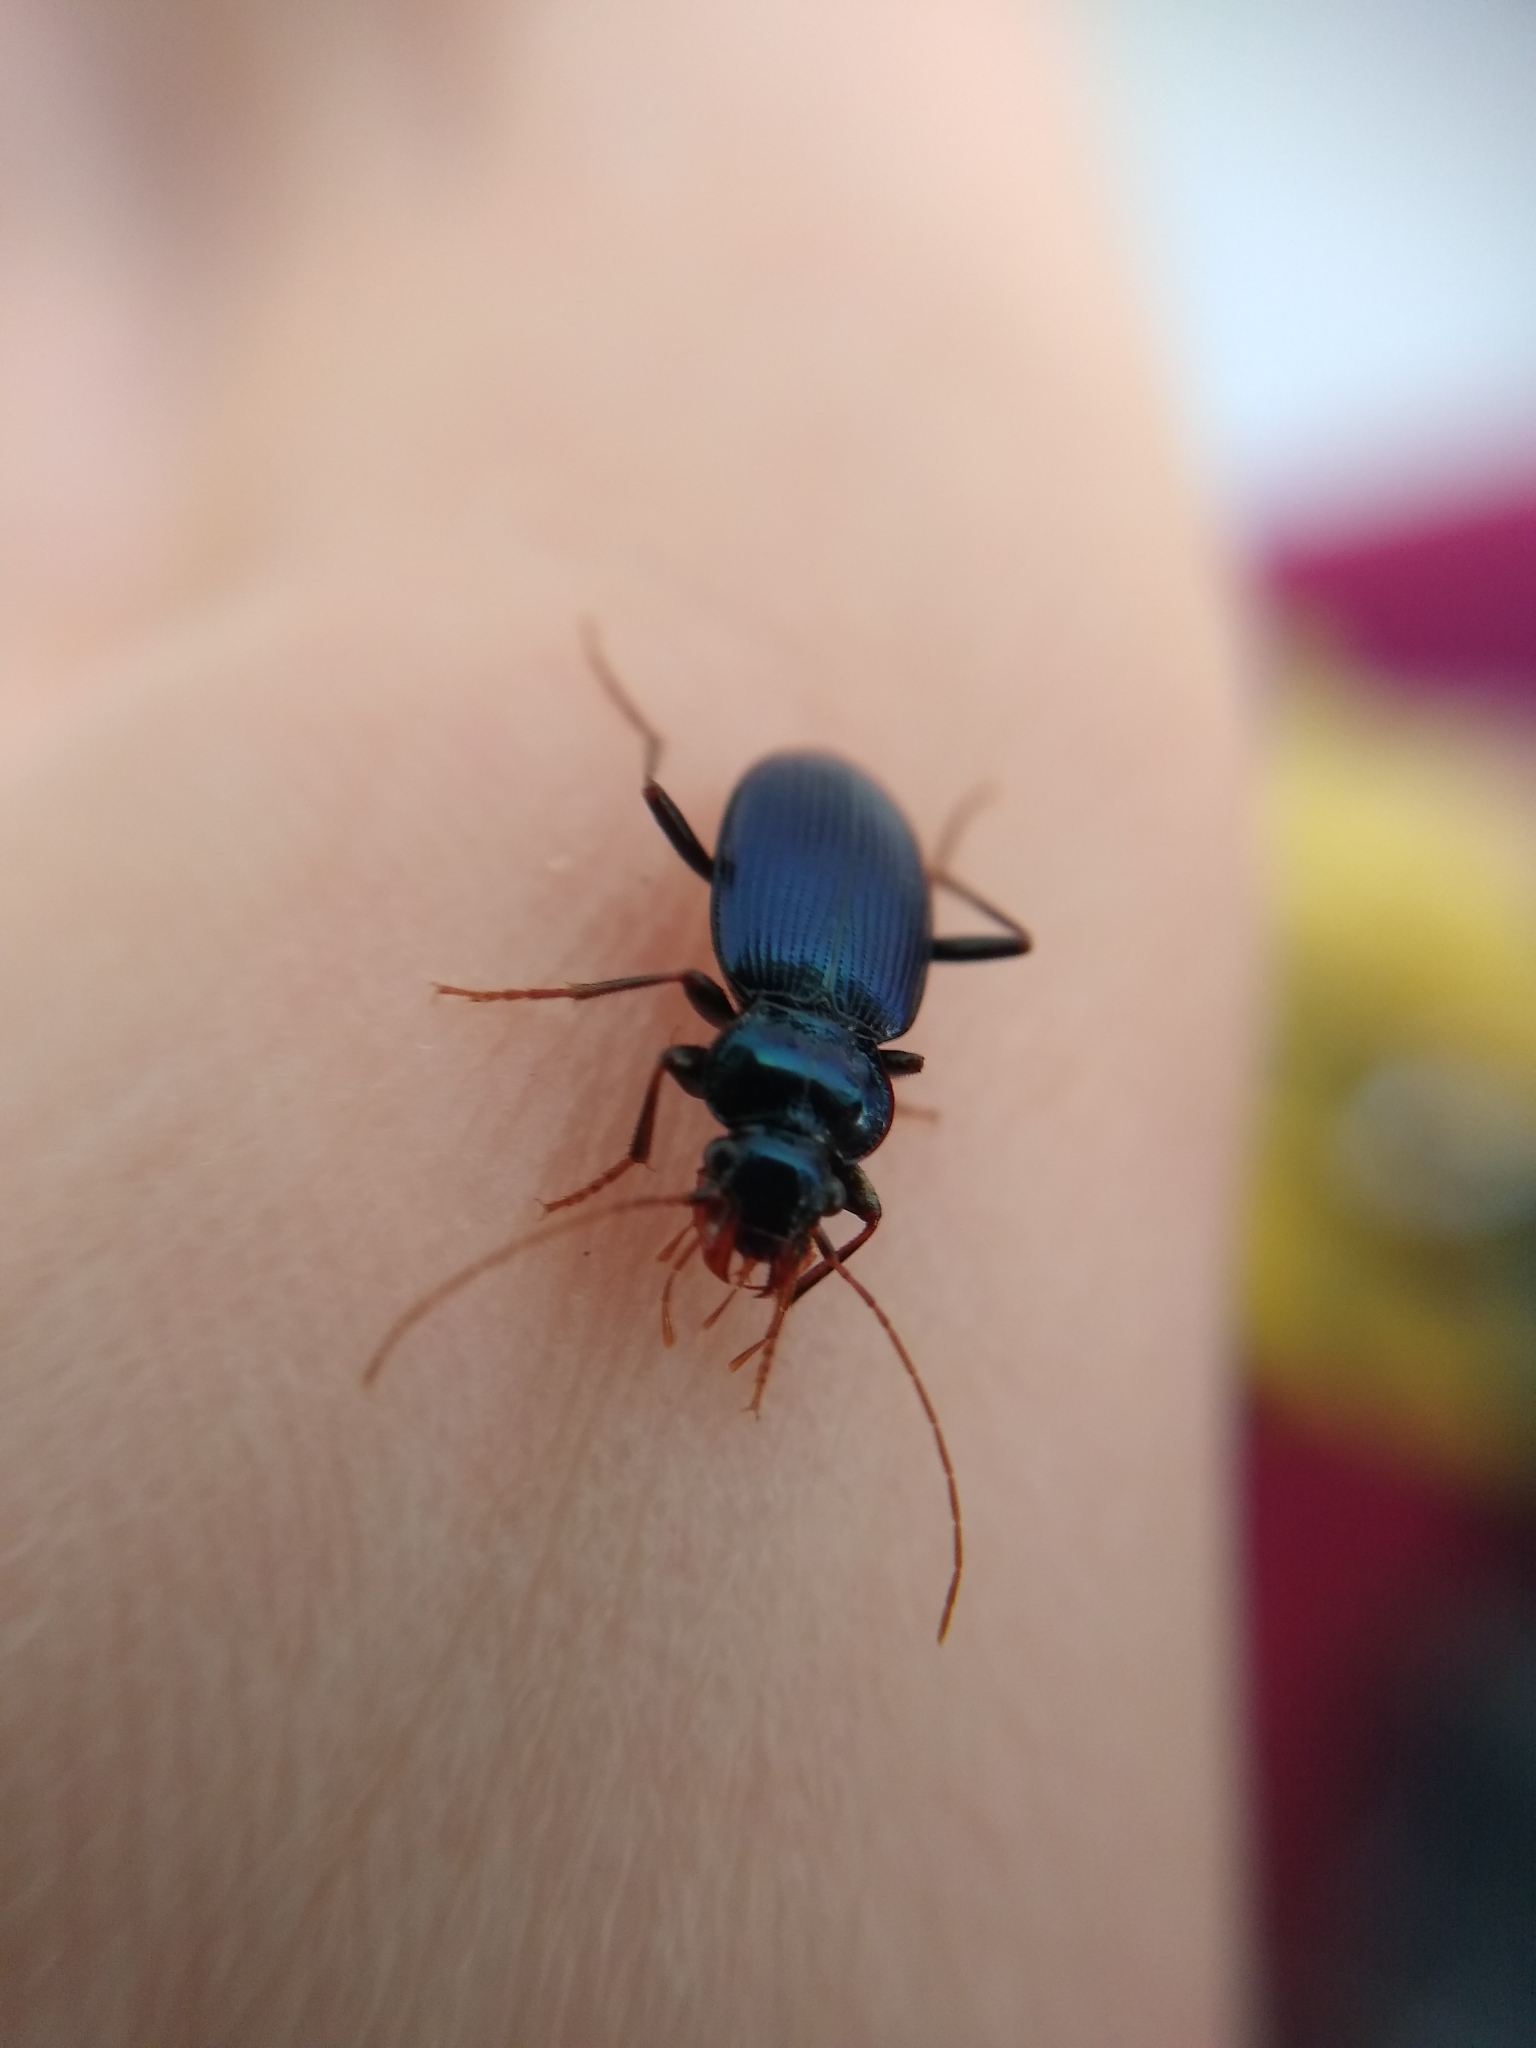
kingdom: Animalia
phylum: Arthropoda
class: Insecta
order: Coleoptera
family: Carabidae
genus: Leistus
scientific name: Leistus spinibarbis
